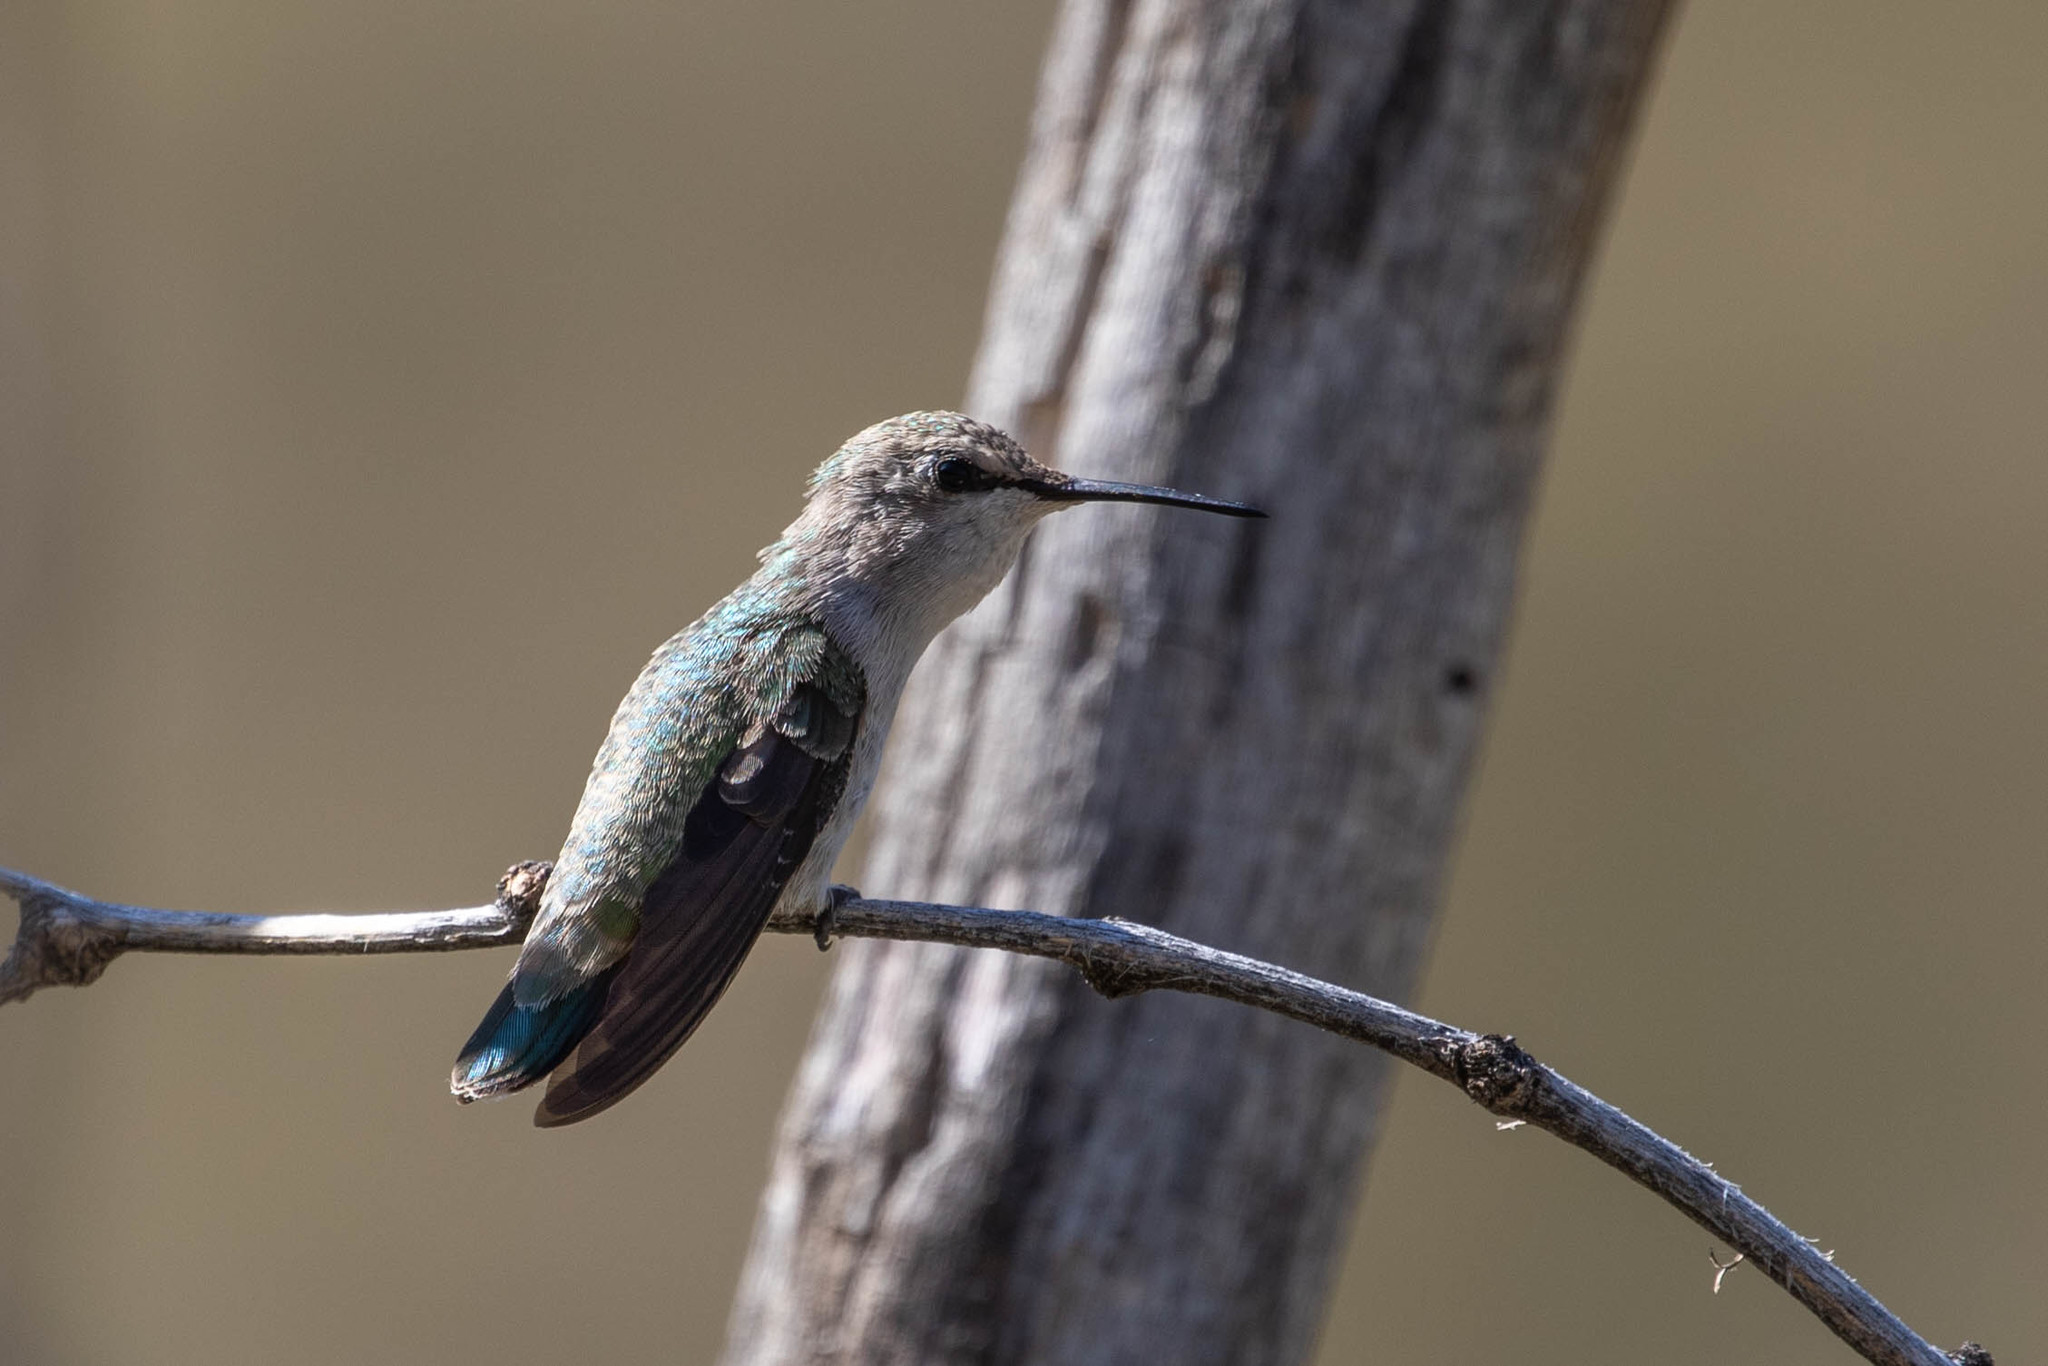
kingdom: Animalia
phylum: Chordata
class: Aves
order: Apodiformes
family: Trochilidae
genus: Calypte
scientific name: Calypte costae
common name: Costa's hummingbird
